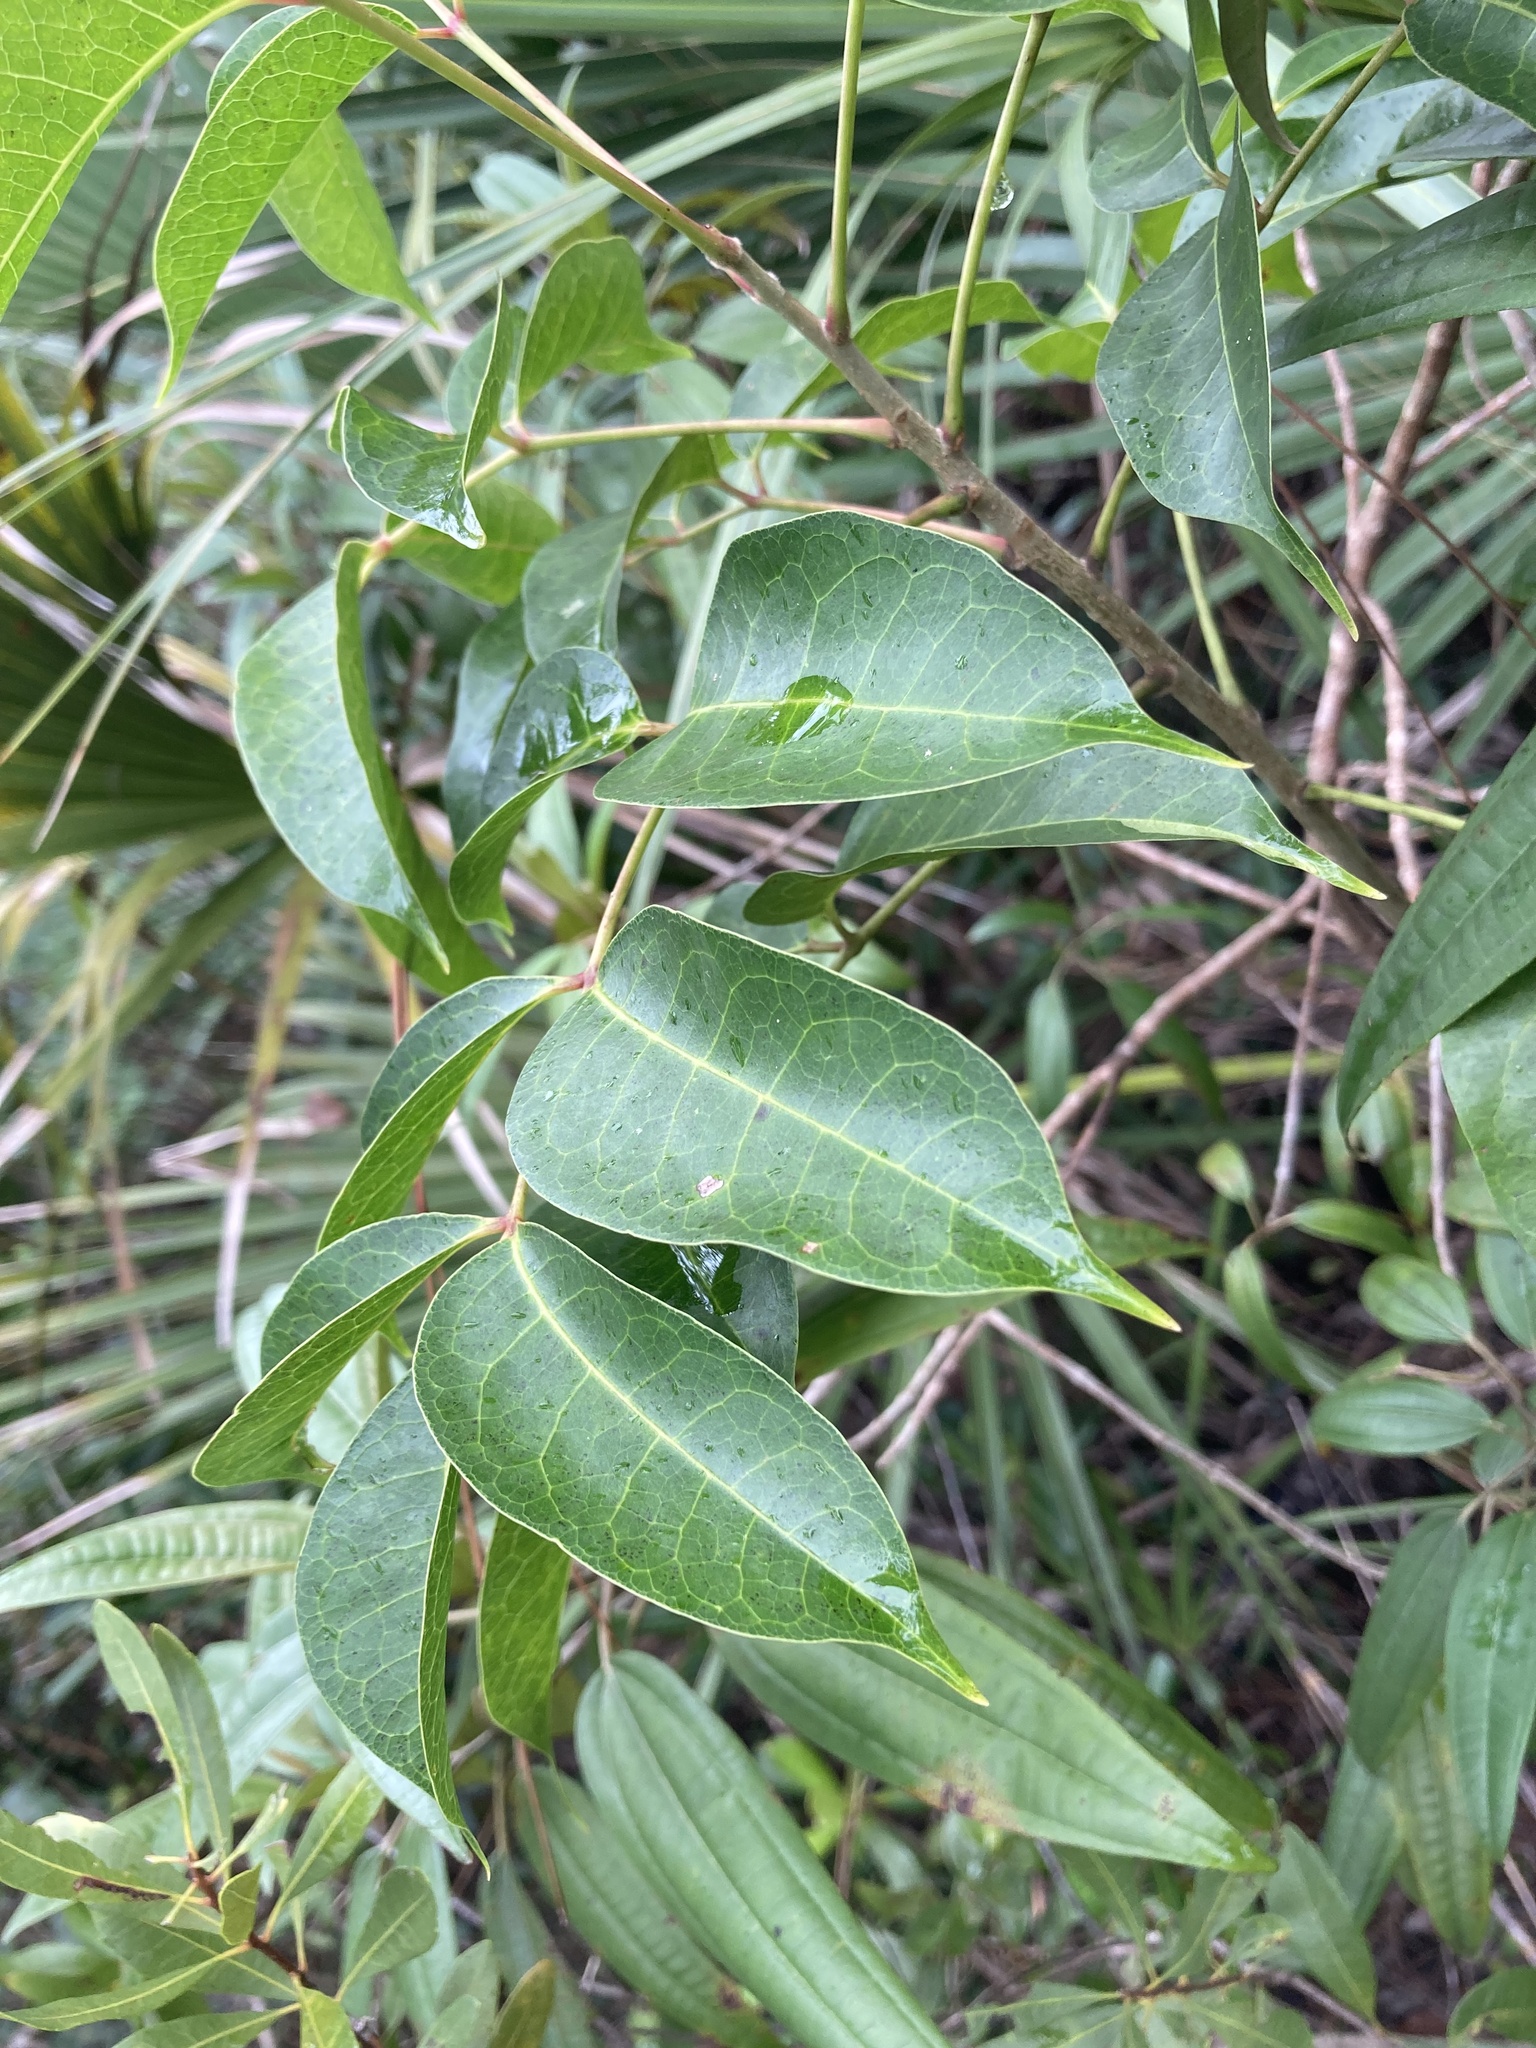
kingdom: Plantae
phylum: Tracheophyta
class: Magnoliopsida
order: Sapindales
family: Burseraceae
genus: Bursera
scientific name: Bursera simaruba
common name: Turpentine tree
